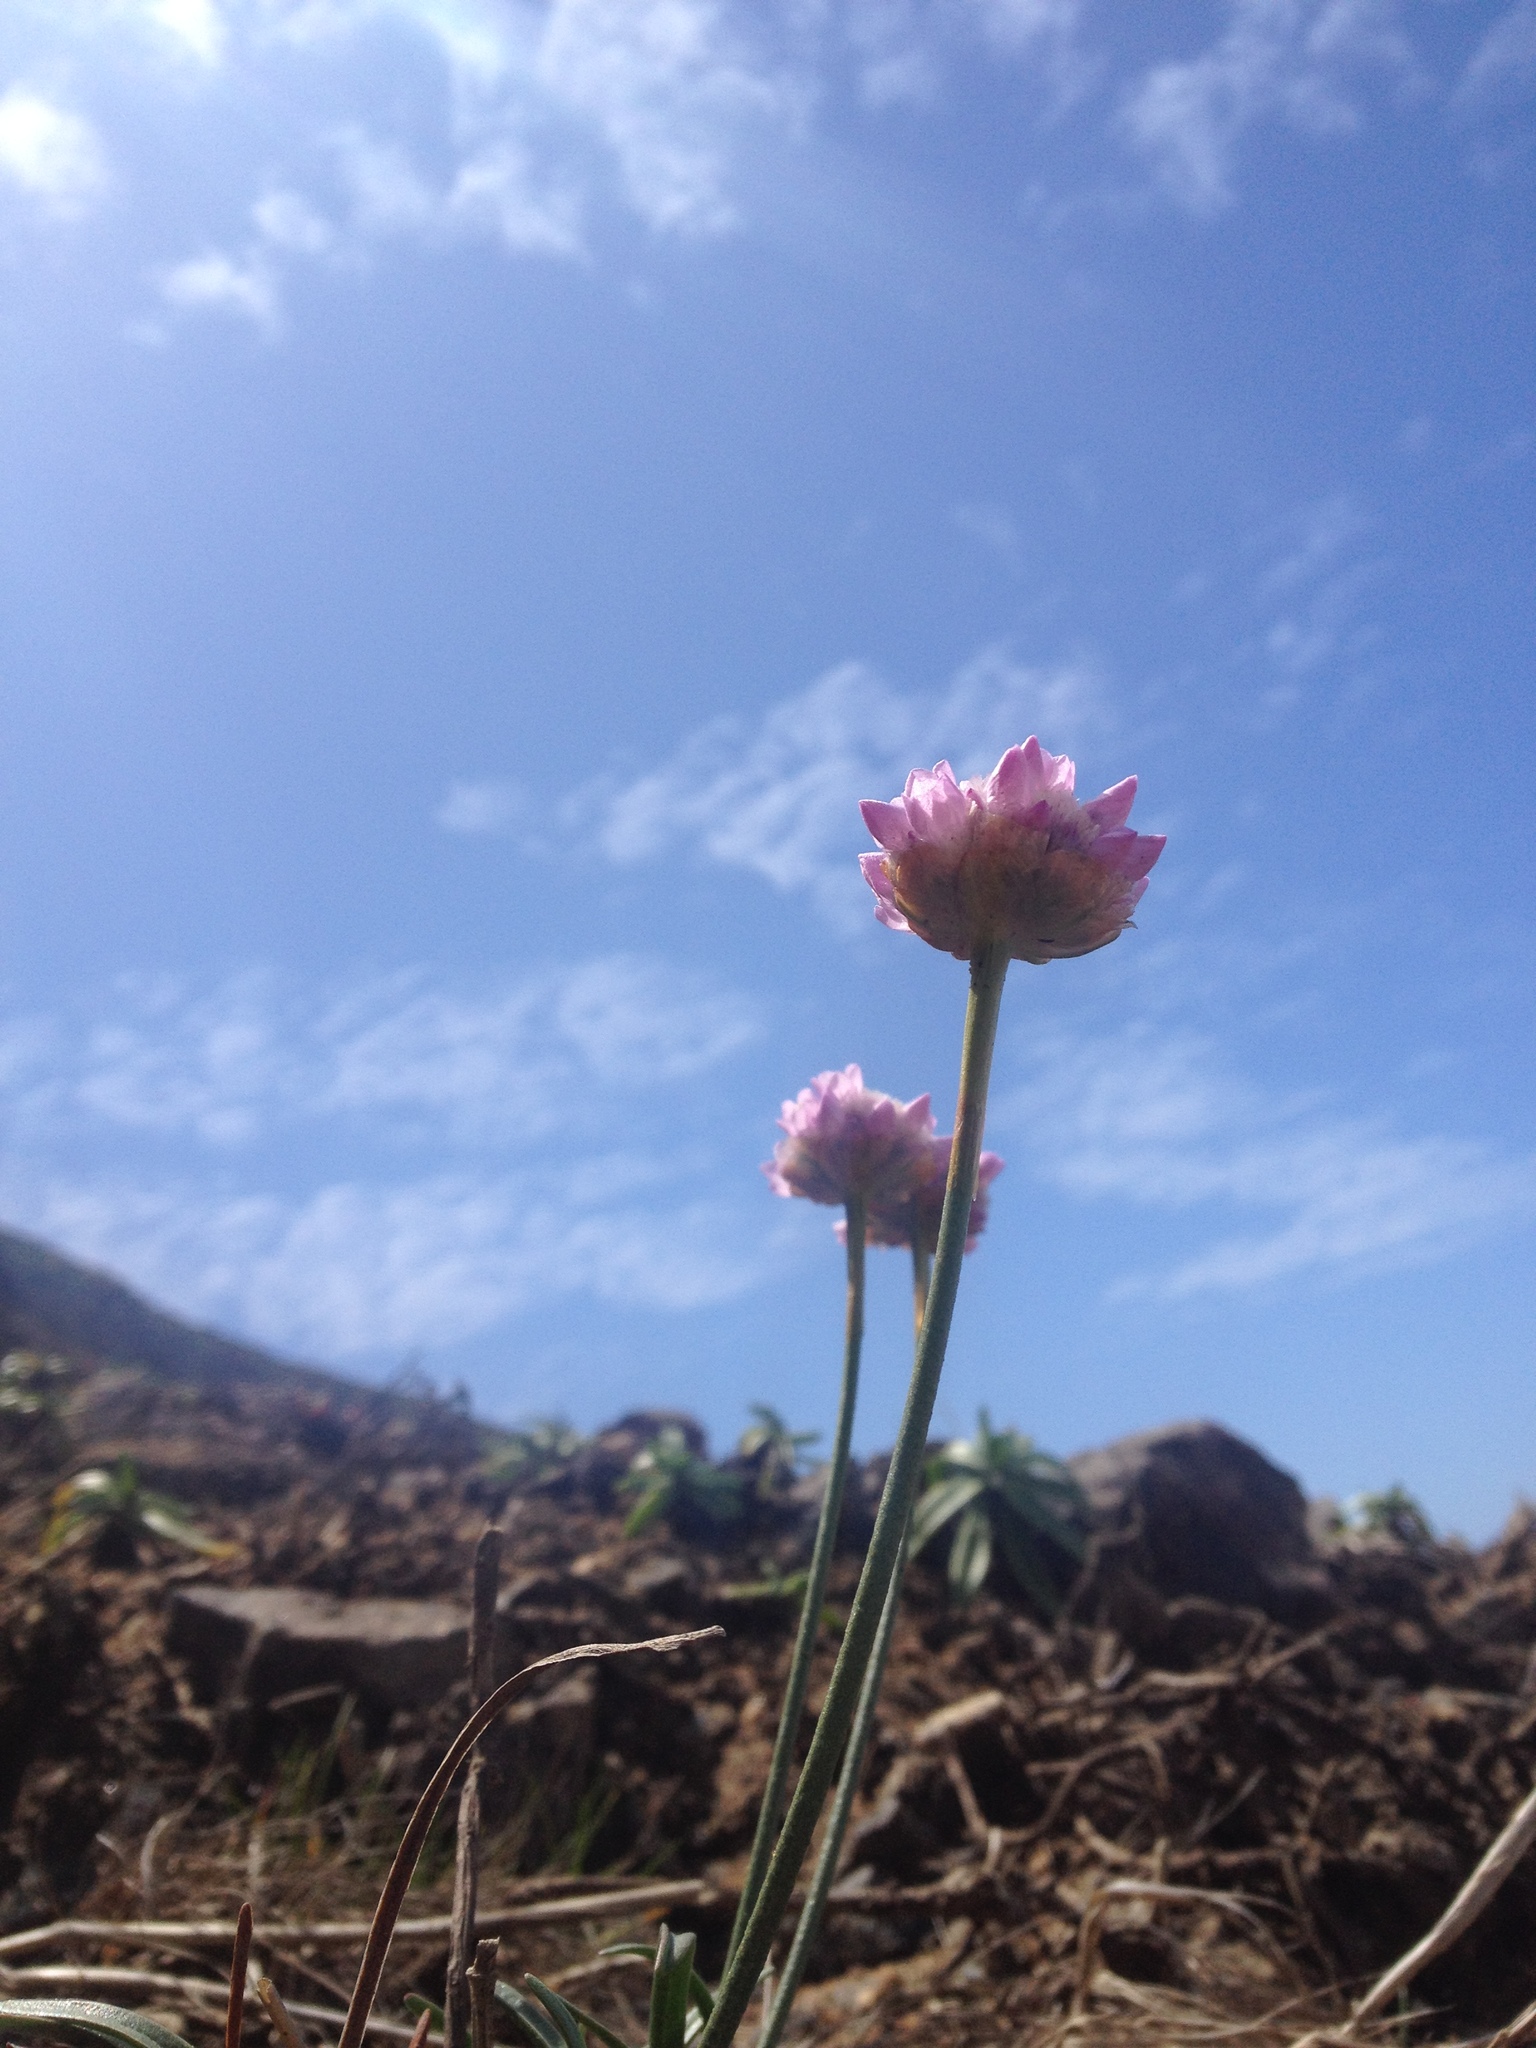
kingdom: Plantae
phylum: Tracheophyta
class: Magnoliopsida
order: Caryophyllales
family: Plumbaginaceae
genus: Armeria
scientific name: Armeria maritima
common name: Thrift
